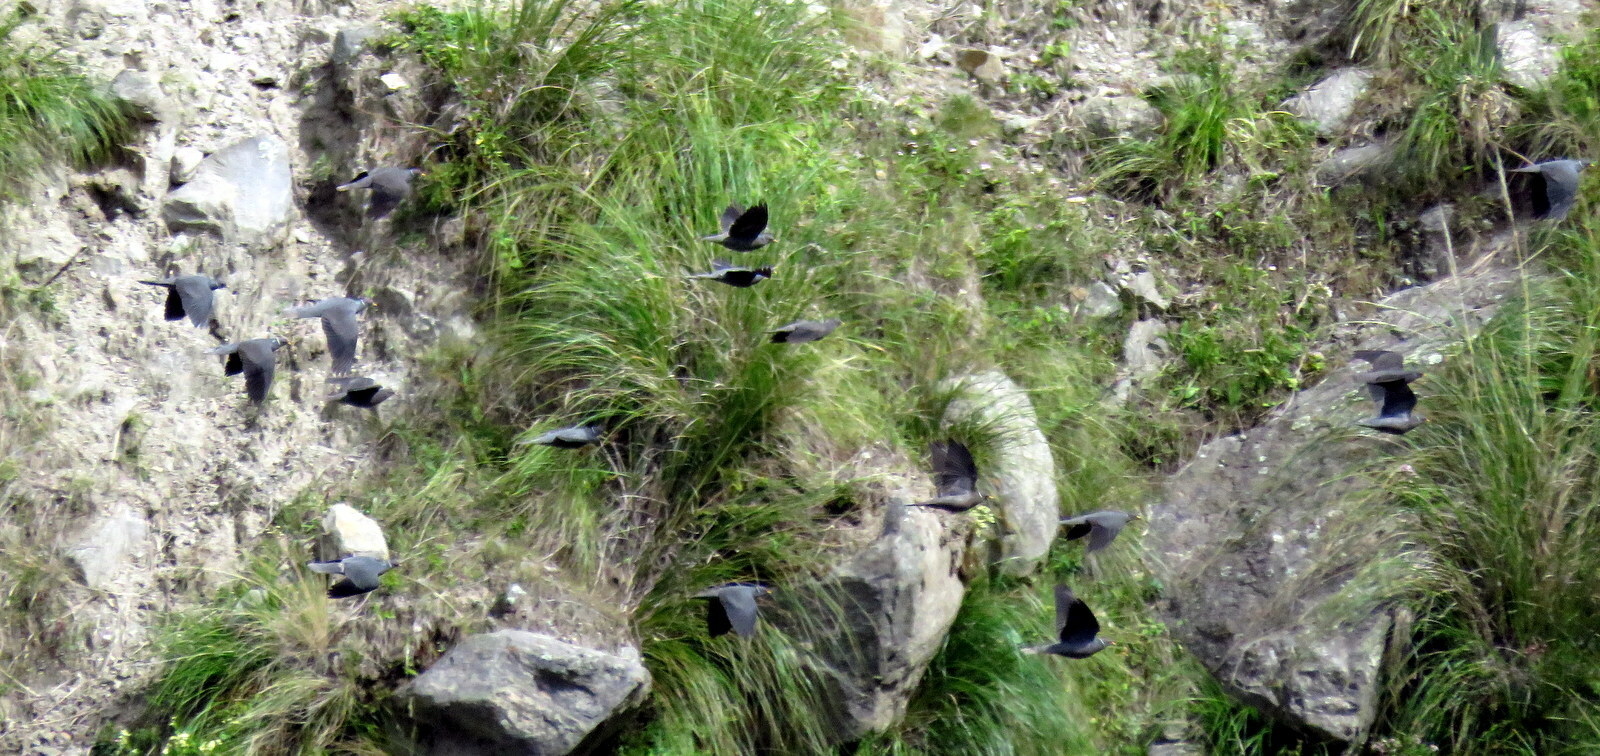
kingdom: Animalia
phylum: Chordata
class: Aves
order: Columbiformes
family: Columbidae
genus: Patagioenas
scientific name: Patagioenas fasciata
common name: Band-tailed pigeon
